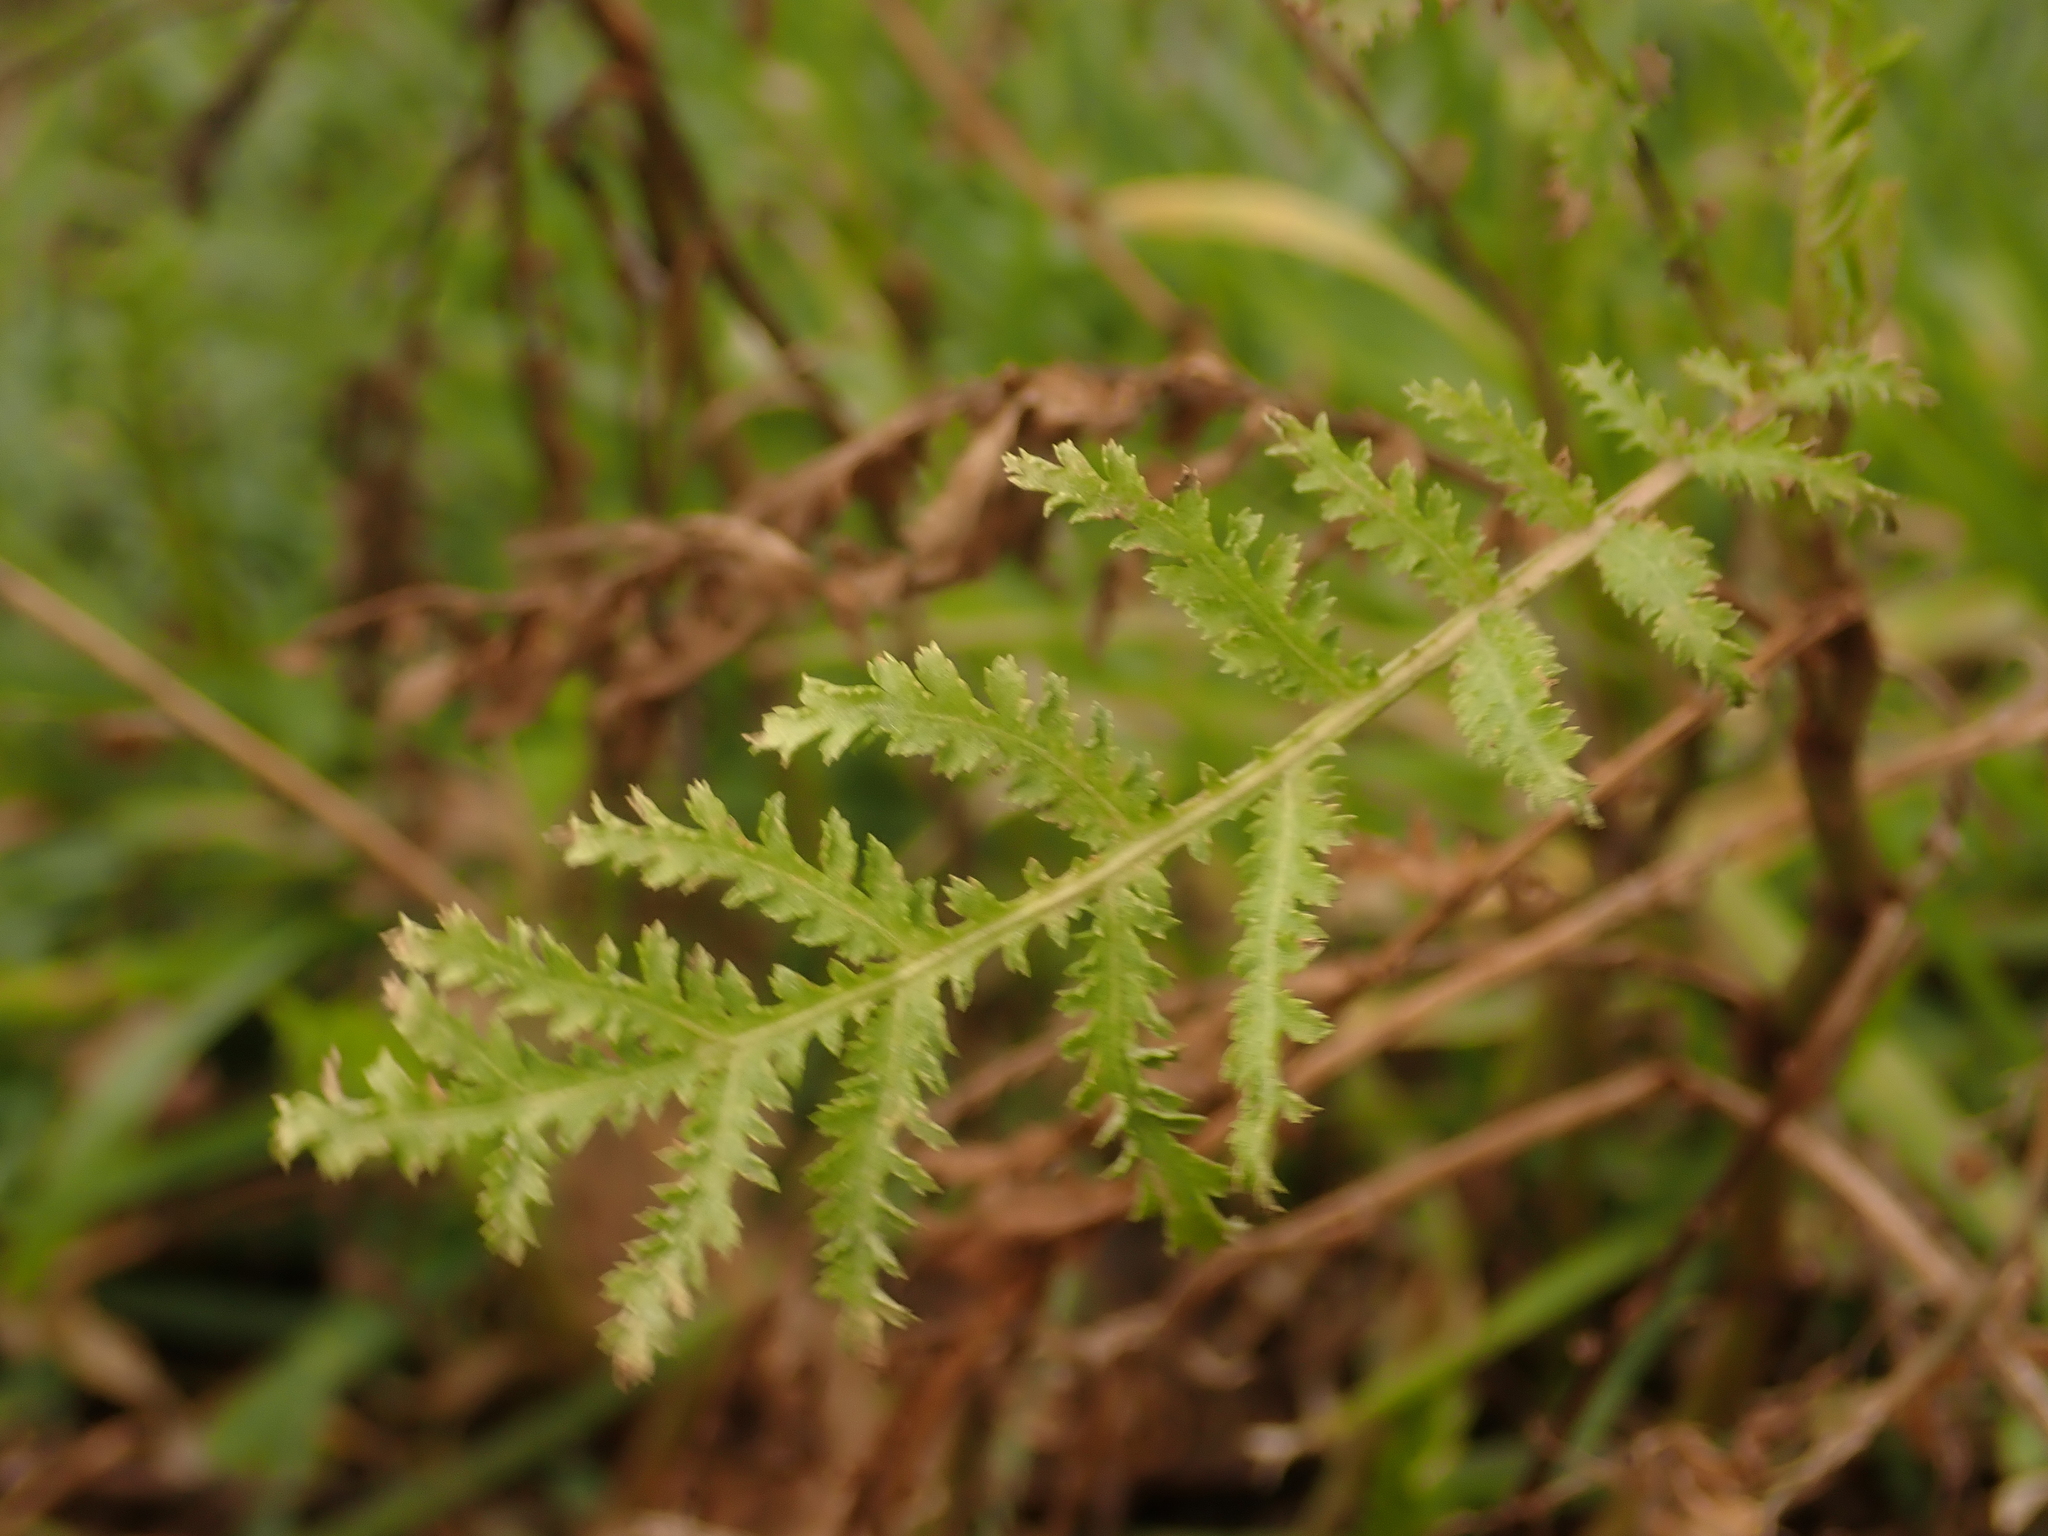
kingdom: Plantae
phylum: Tracheophyta
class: Magnoliopsida
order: Asterales
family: Asteraceae
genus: Tanacetum
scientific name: Tanacetum vulgare
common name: Common tansy
